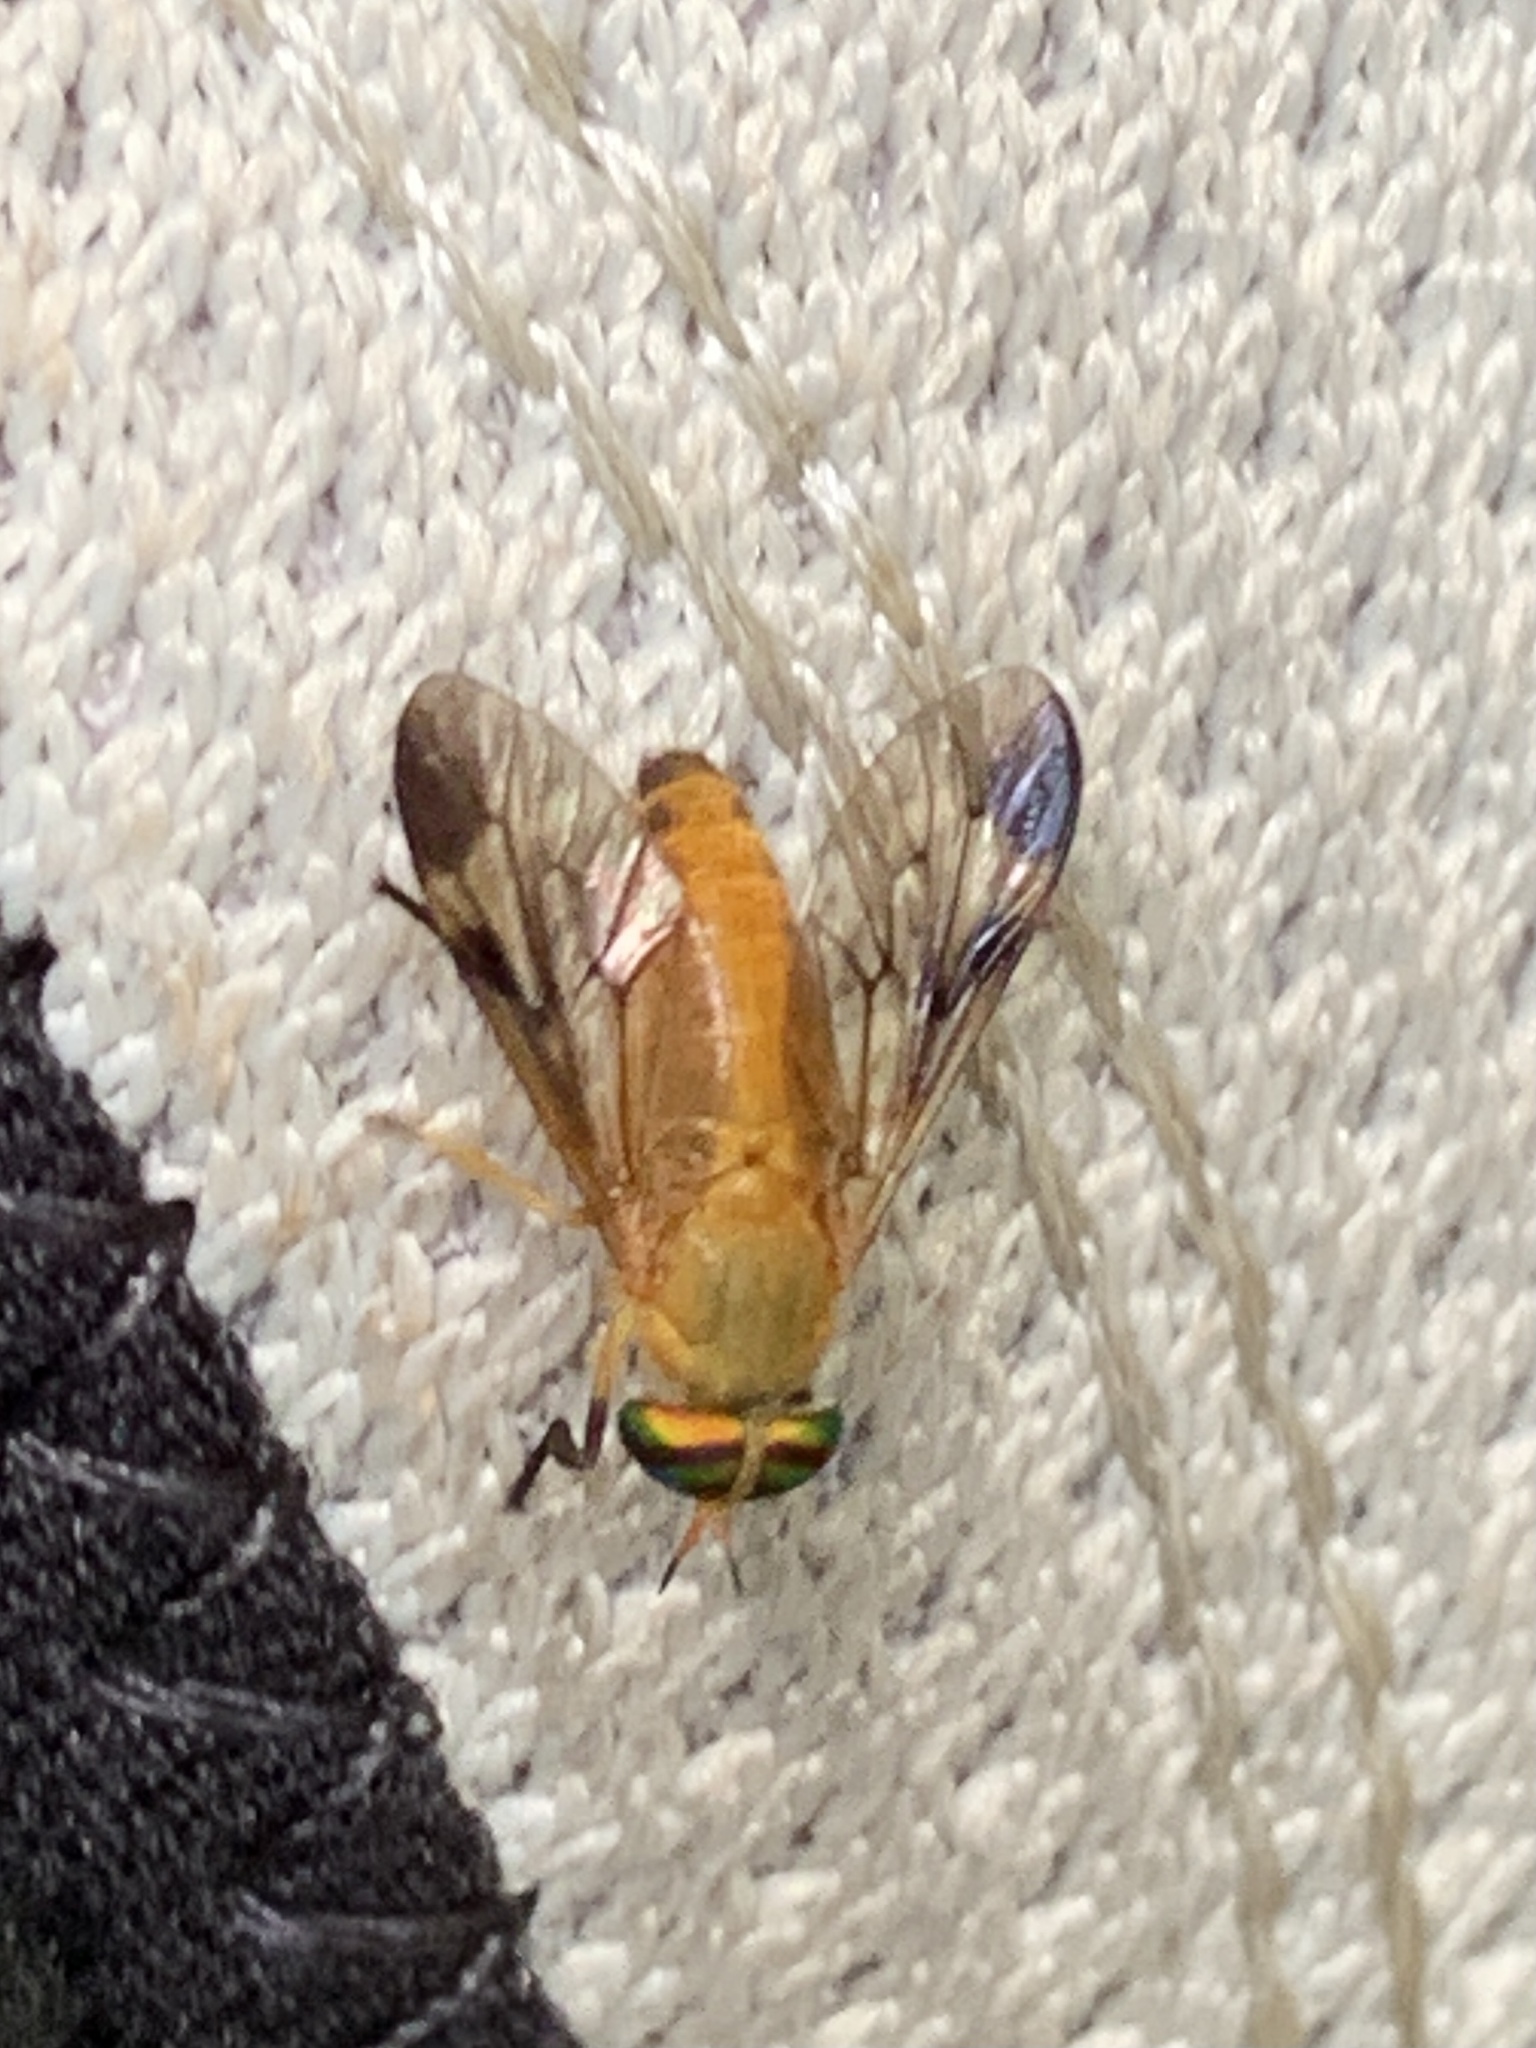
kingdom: Animalia
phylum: Arthropoda
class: Insecta
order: Diptera
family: Tabanidae
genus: Diachlorus
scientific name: Diachlorus ferrugatus
